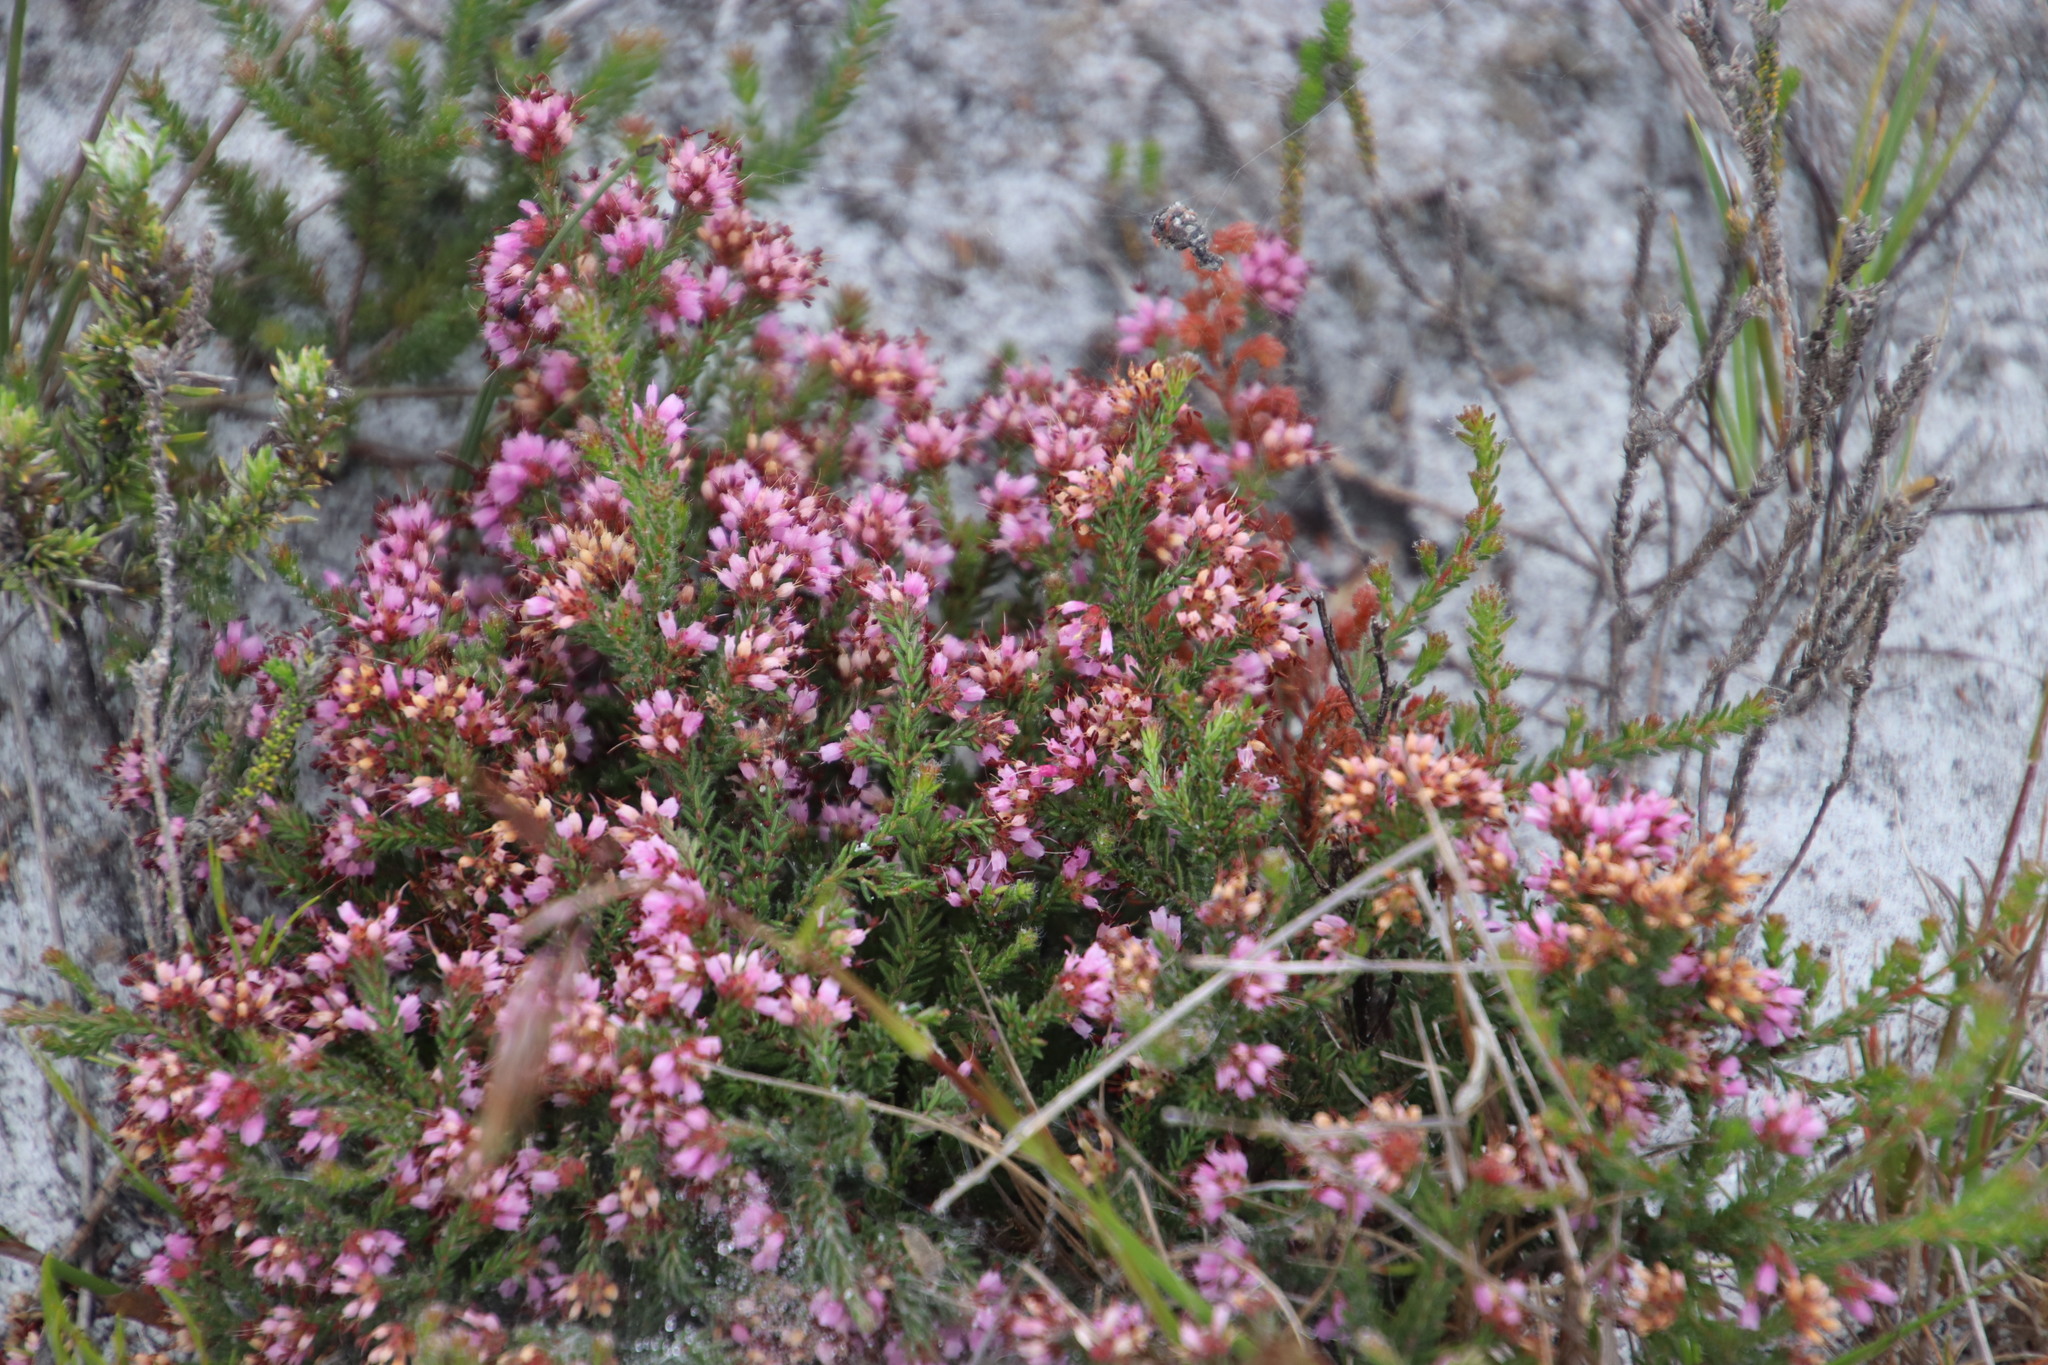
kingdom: Plantae
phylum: Tracheophyta
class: Magnoliopsida
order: Ericales
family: Ericaceae
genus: Erica
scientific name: Erica glabella
